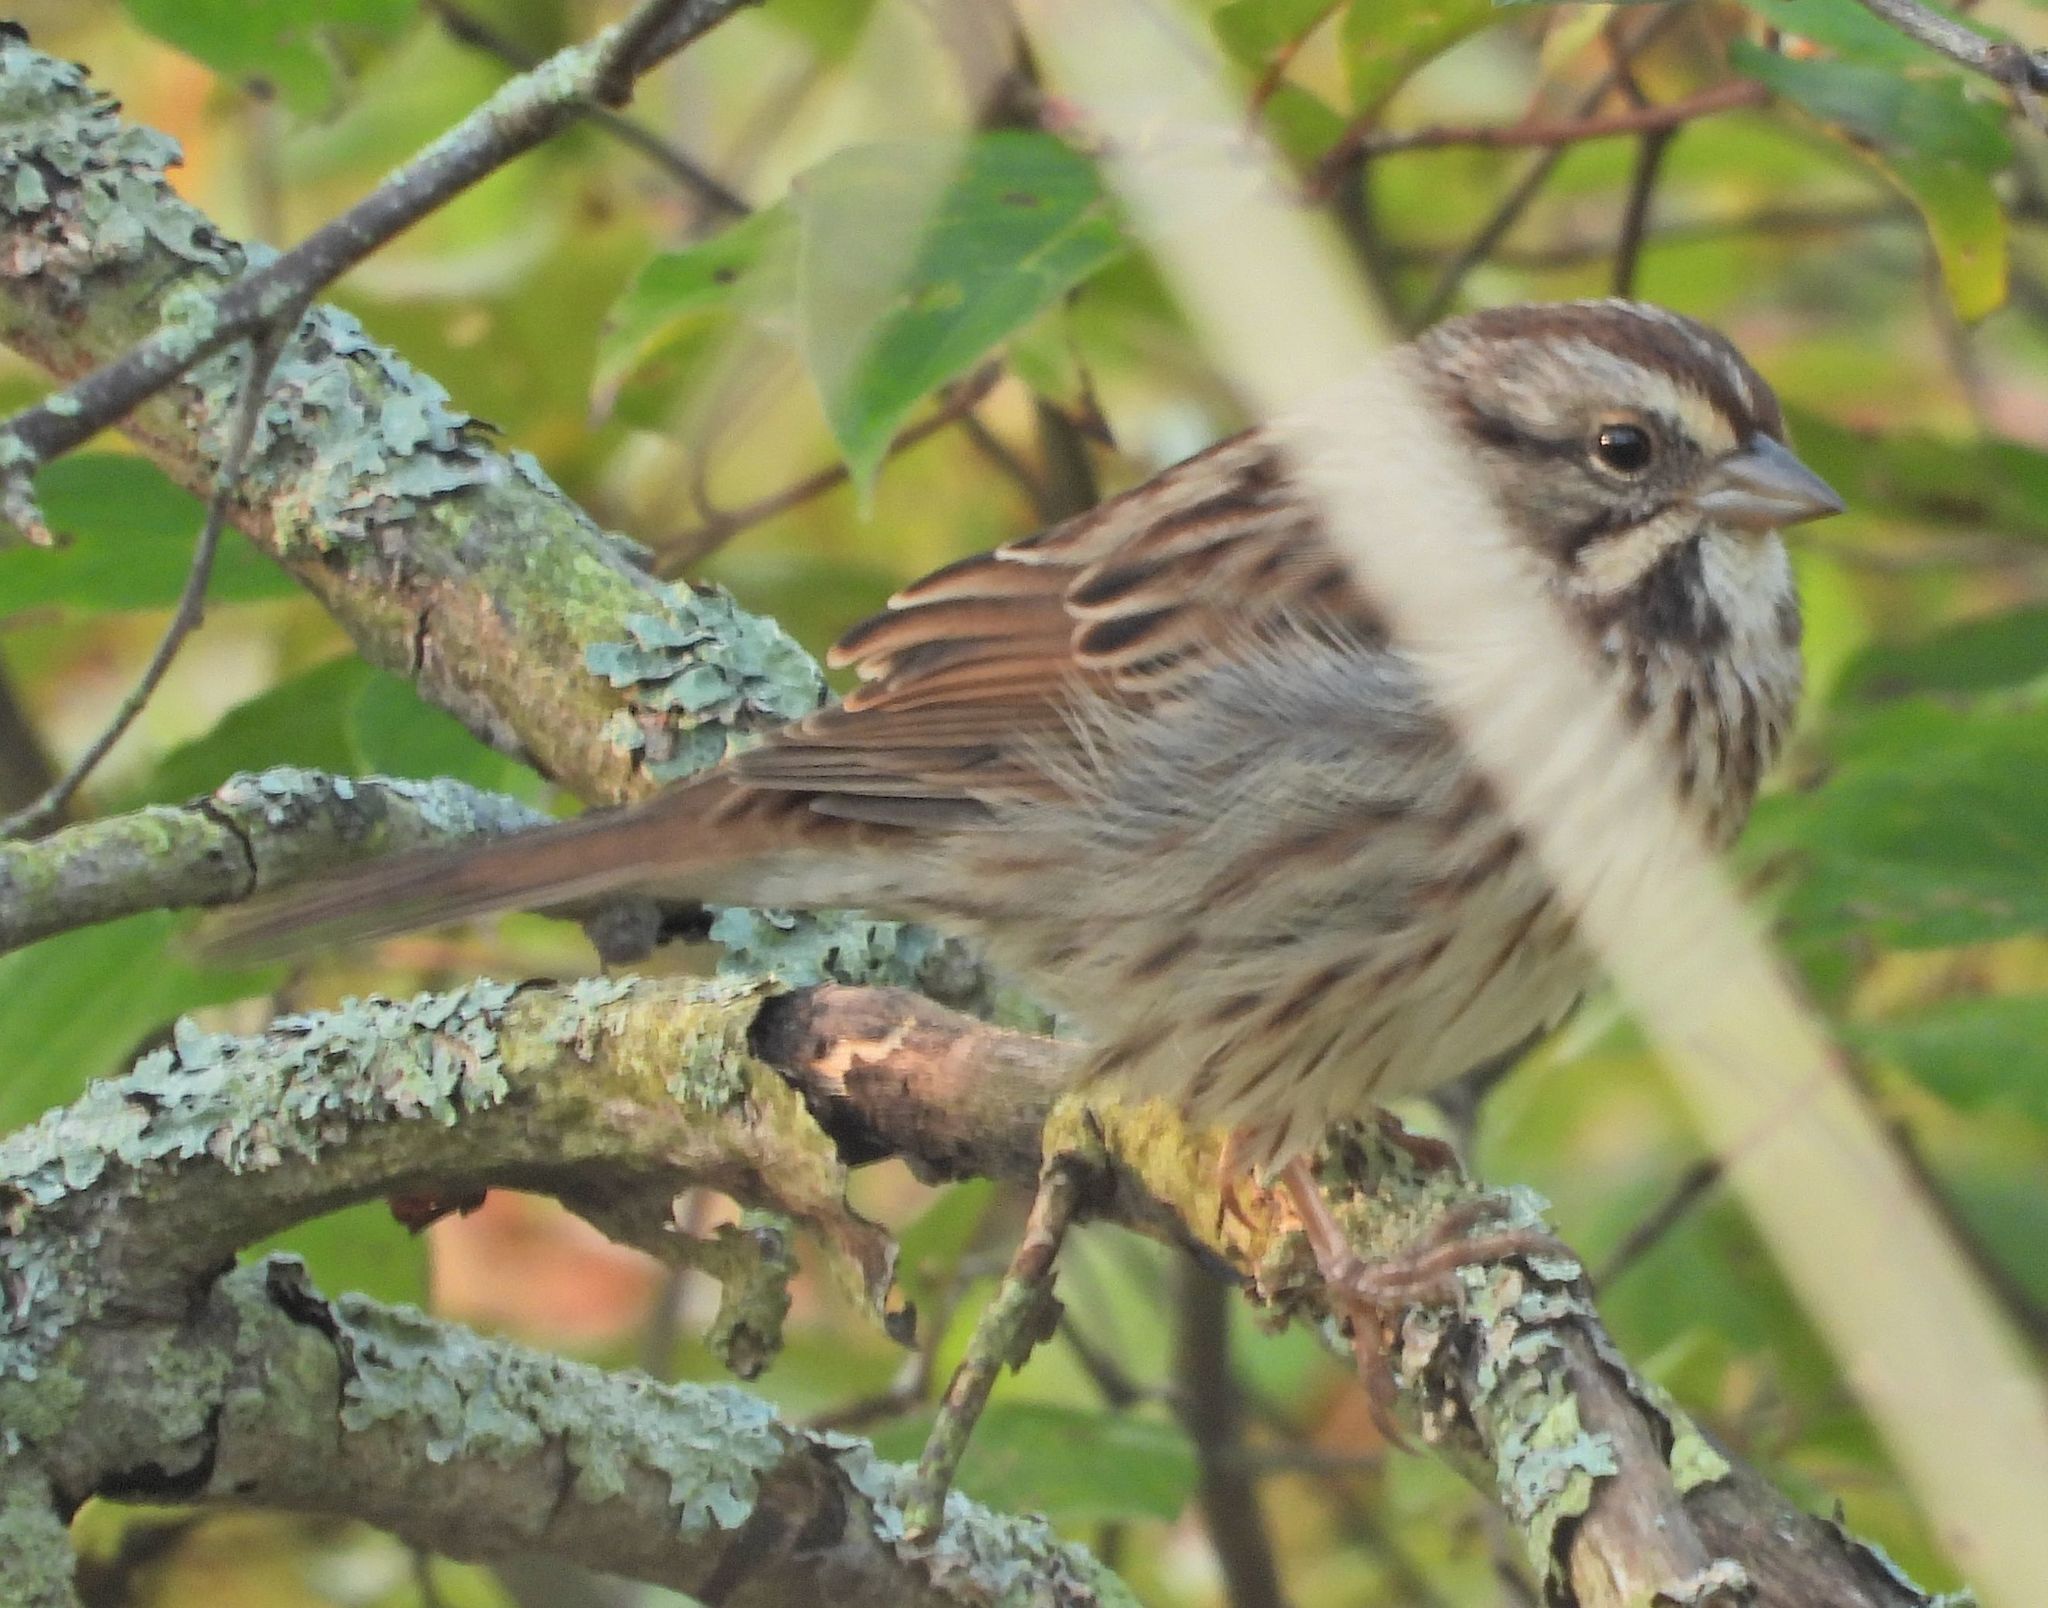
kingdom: Animalia
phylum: Chordata
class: Aves
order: Passeriformes
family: Passerellidae
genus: Melospiza
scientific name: Melospiza melodia
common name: Song sparrow
